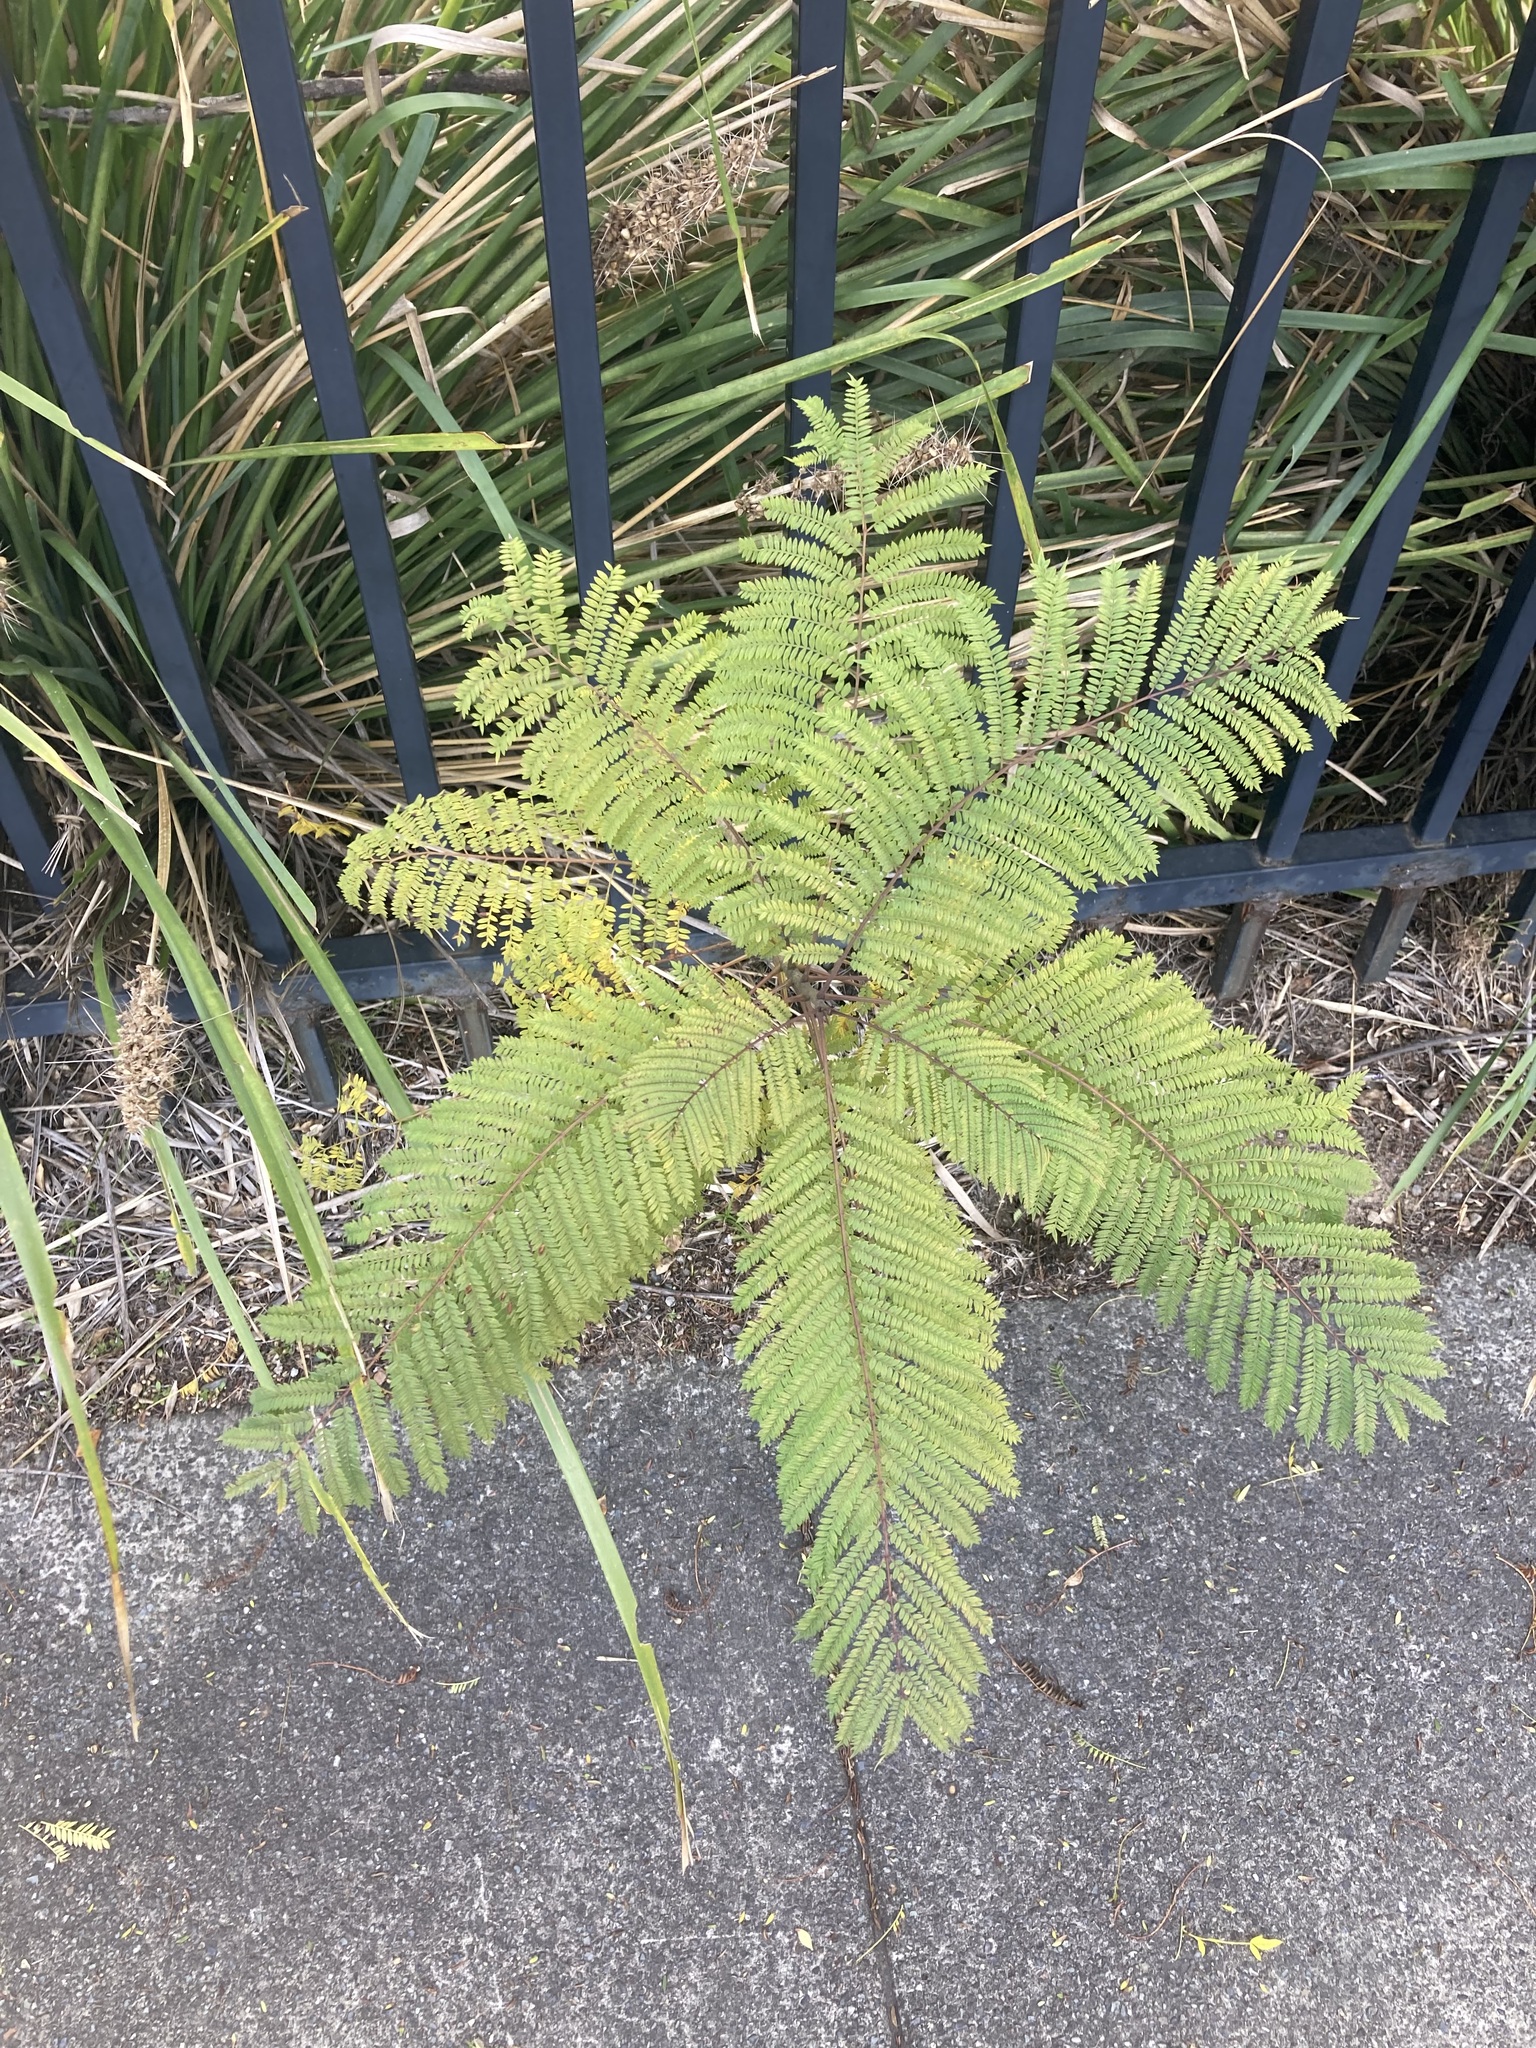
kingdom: Plantae
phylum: Tracheophyta
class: Magnoliopsida
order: Lamiales
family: Bignoniaceae
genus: Jacaranda
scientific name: Jacaranda mimosifolia
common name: Black poui
